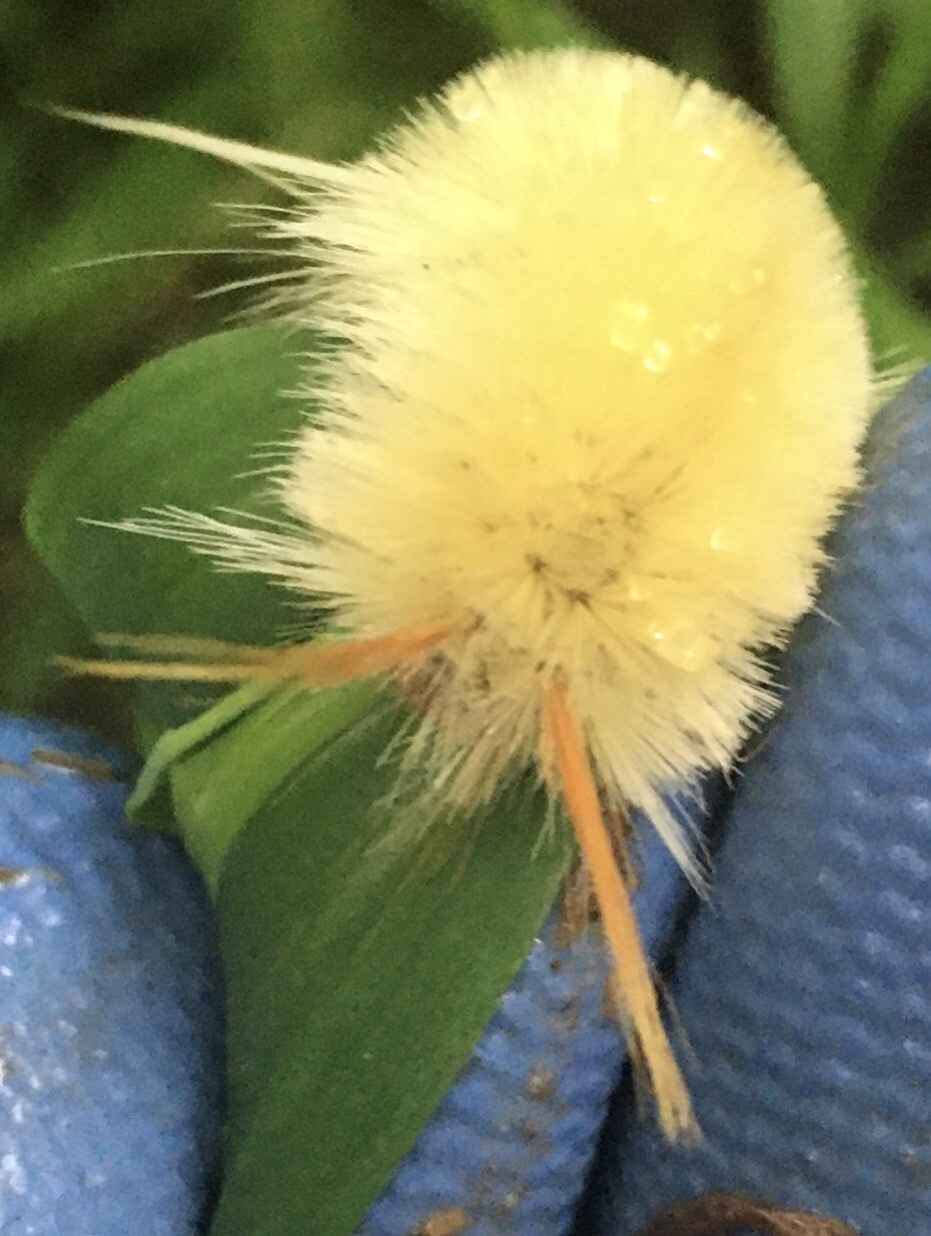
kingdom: Animalia
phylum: Arthropoda
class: Insecta
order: Lepidoptera
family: Erebidae
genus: Halysidota
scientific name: Halysidota harrisii
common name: Sycamore tussock moth
